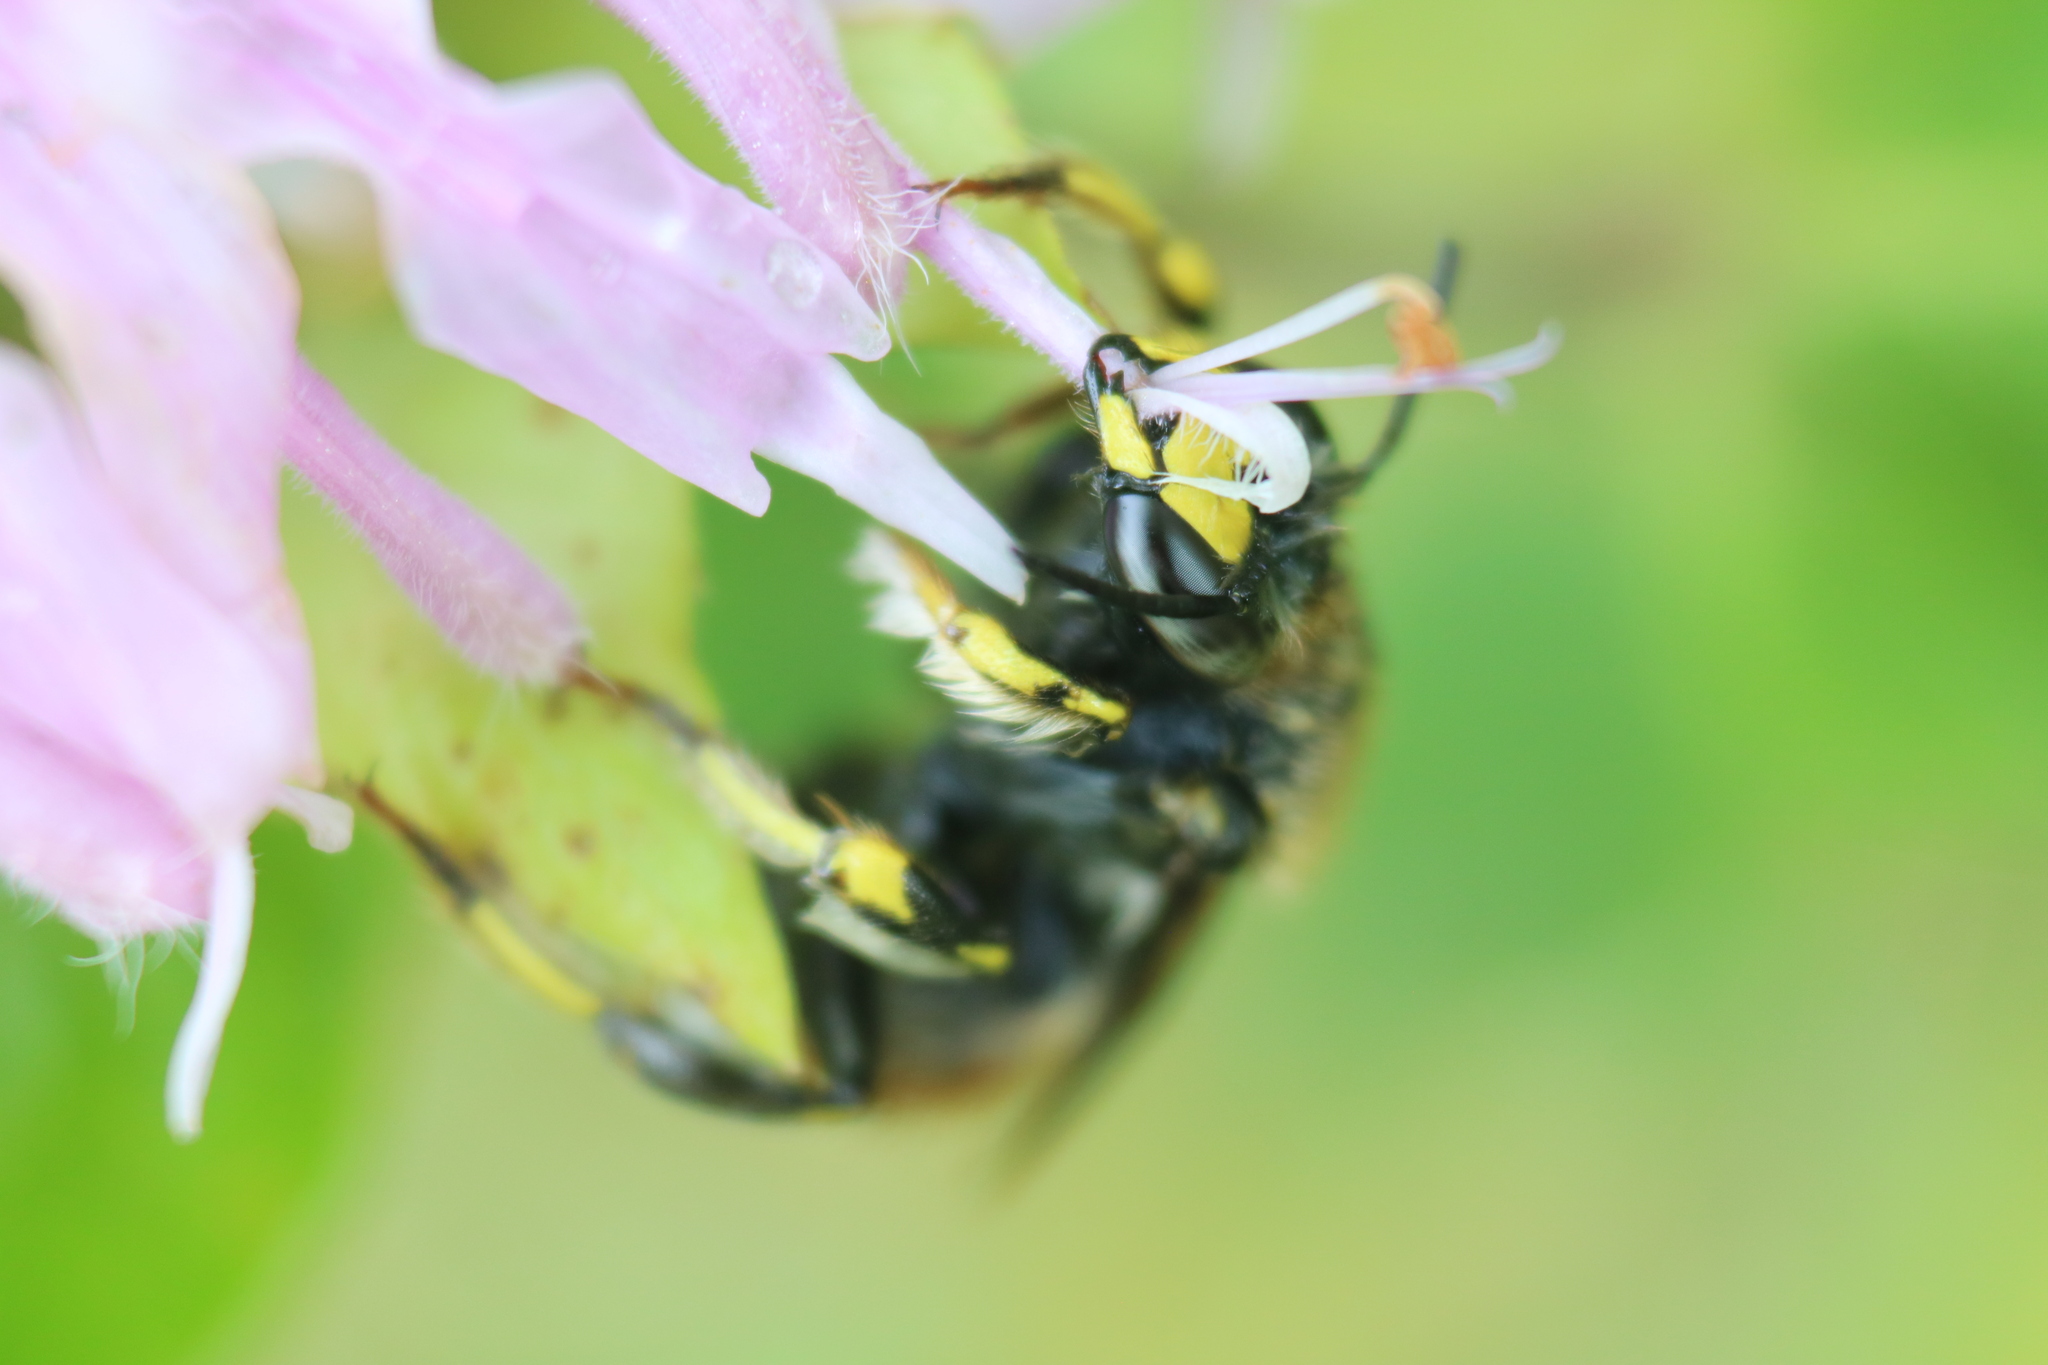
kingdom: Animalia
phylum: Arthropoda
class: Insecta
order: Hymenoptera
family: Megachilidae
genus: Anthidium
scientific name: Anthidium manicatum
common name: Wool carder bee
